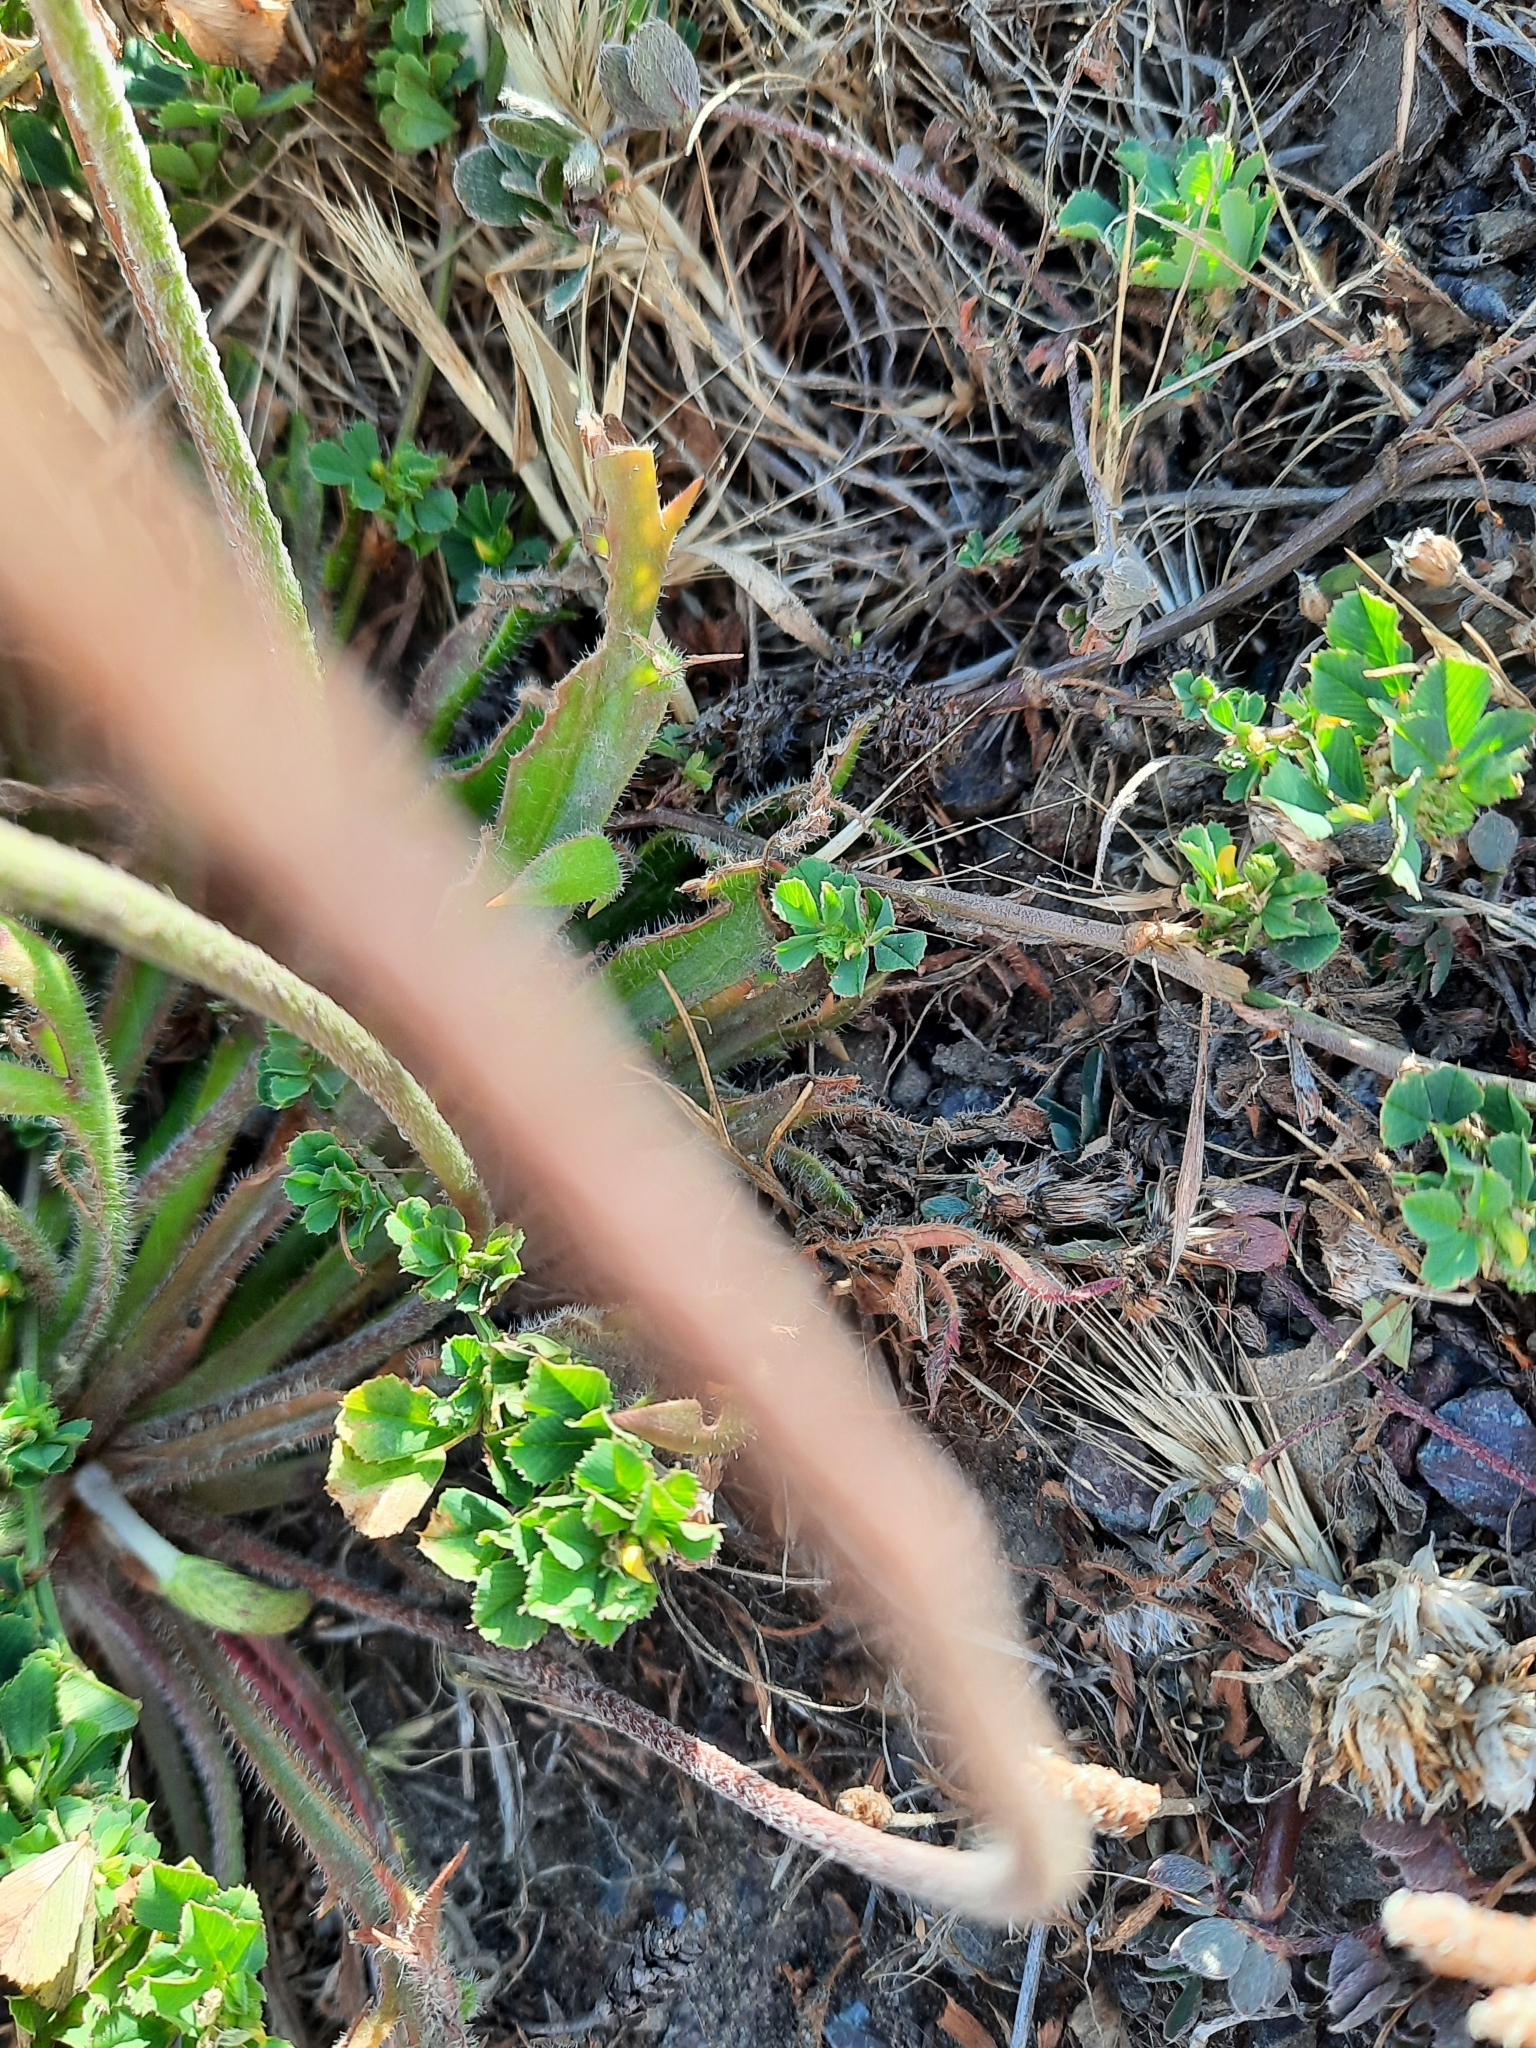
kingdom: Plantae
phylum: Tracheophyta
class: Magnoliopsida
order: Lamiales
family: Plantaginaceae
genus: Plantago
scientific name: Plantago coronopus
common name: Buck's-horn plantain
